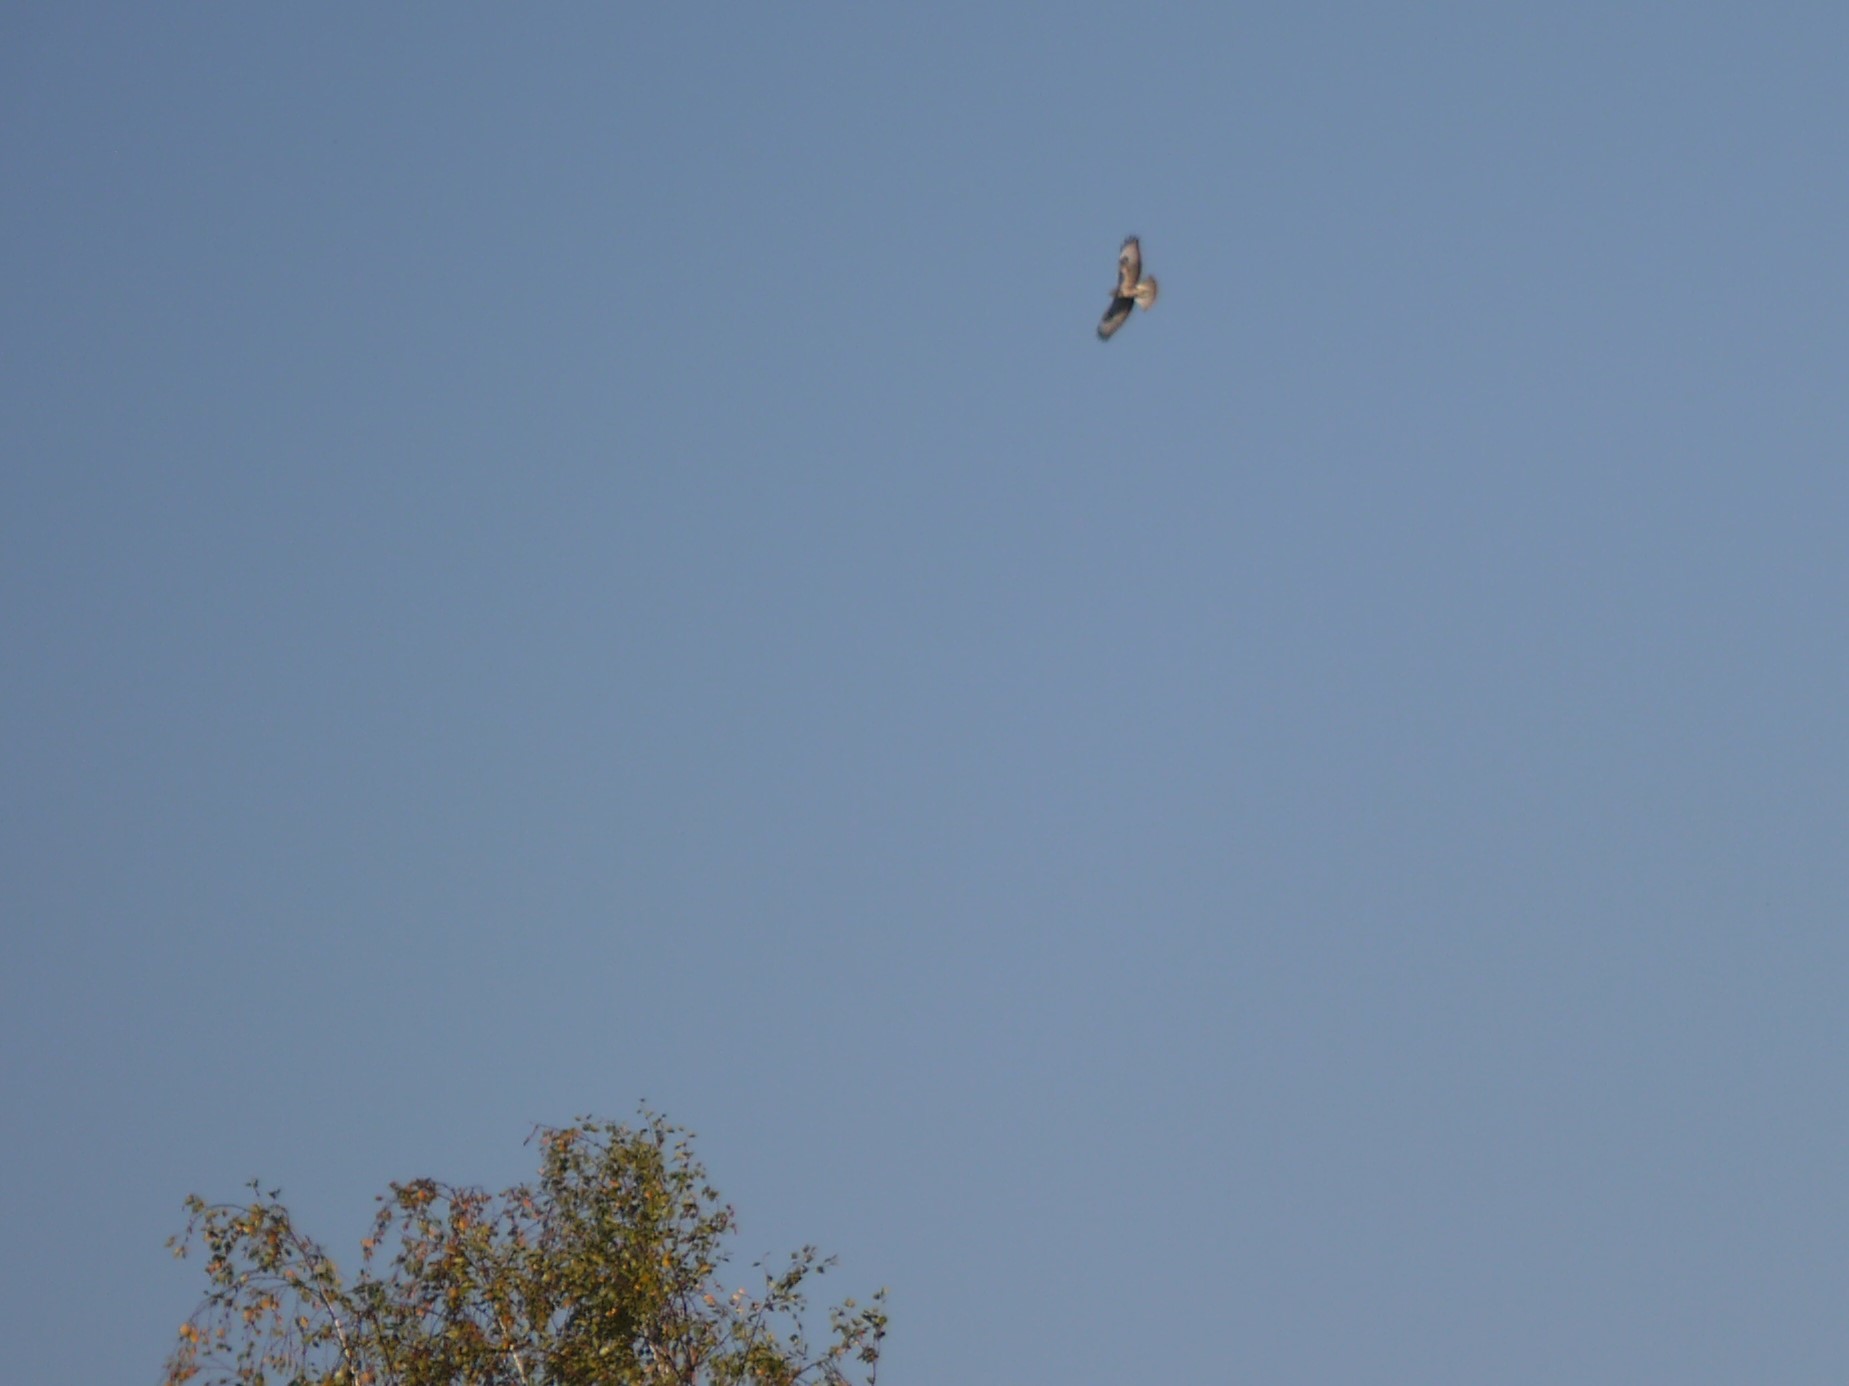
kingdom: Animalia
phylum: Chordata
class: Aves
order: Accipitriformes
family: Accipitridae
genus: Buteo
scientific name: Buteo buteo
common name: Common buzzard
